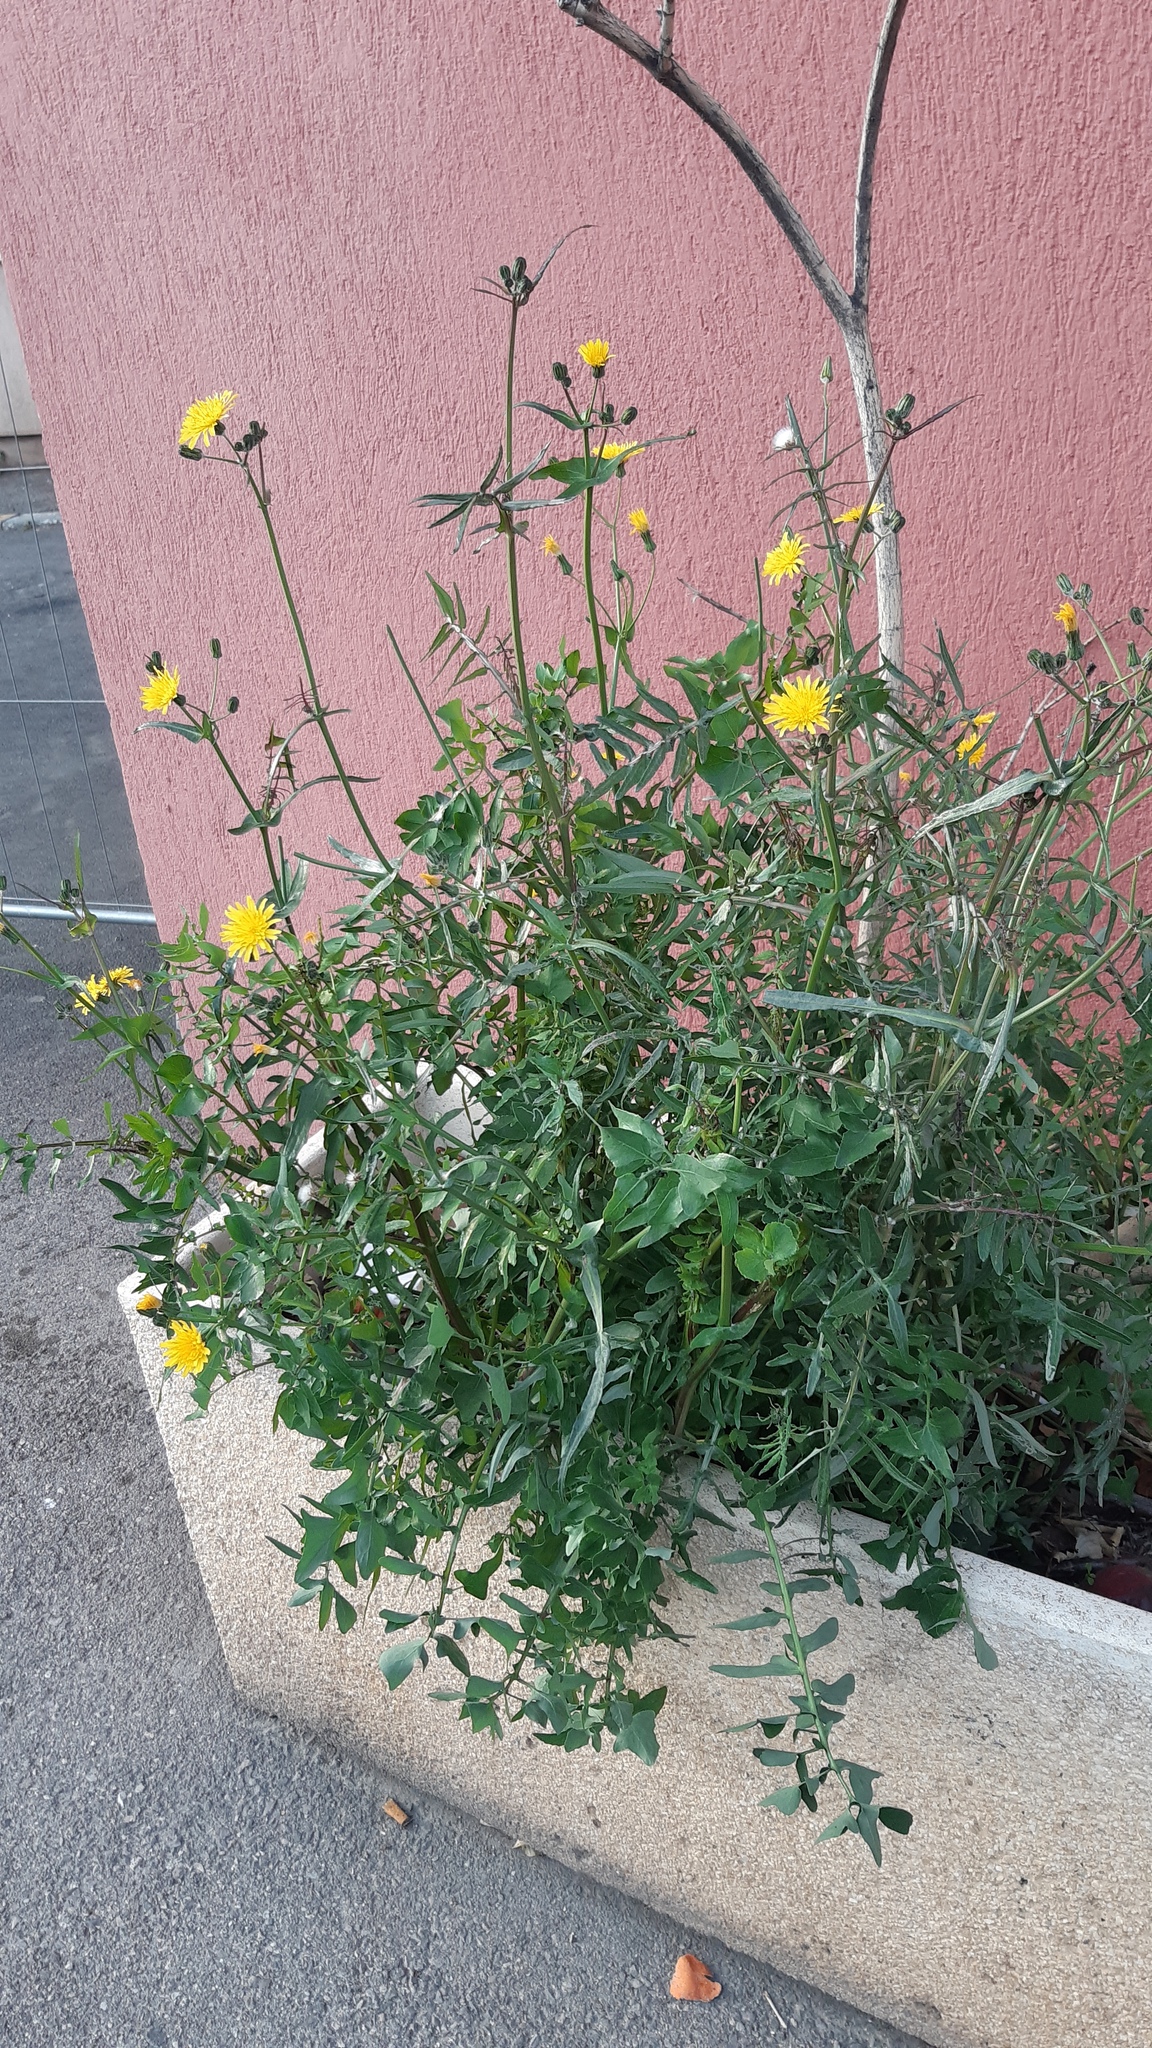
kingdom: Plantae
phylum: Tracheophyta
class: Magnoliopsida
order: Asterales
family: Asteraceae
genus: Sonchus
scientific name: Sonchus tenerrimus
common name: Clammy sowthistle
